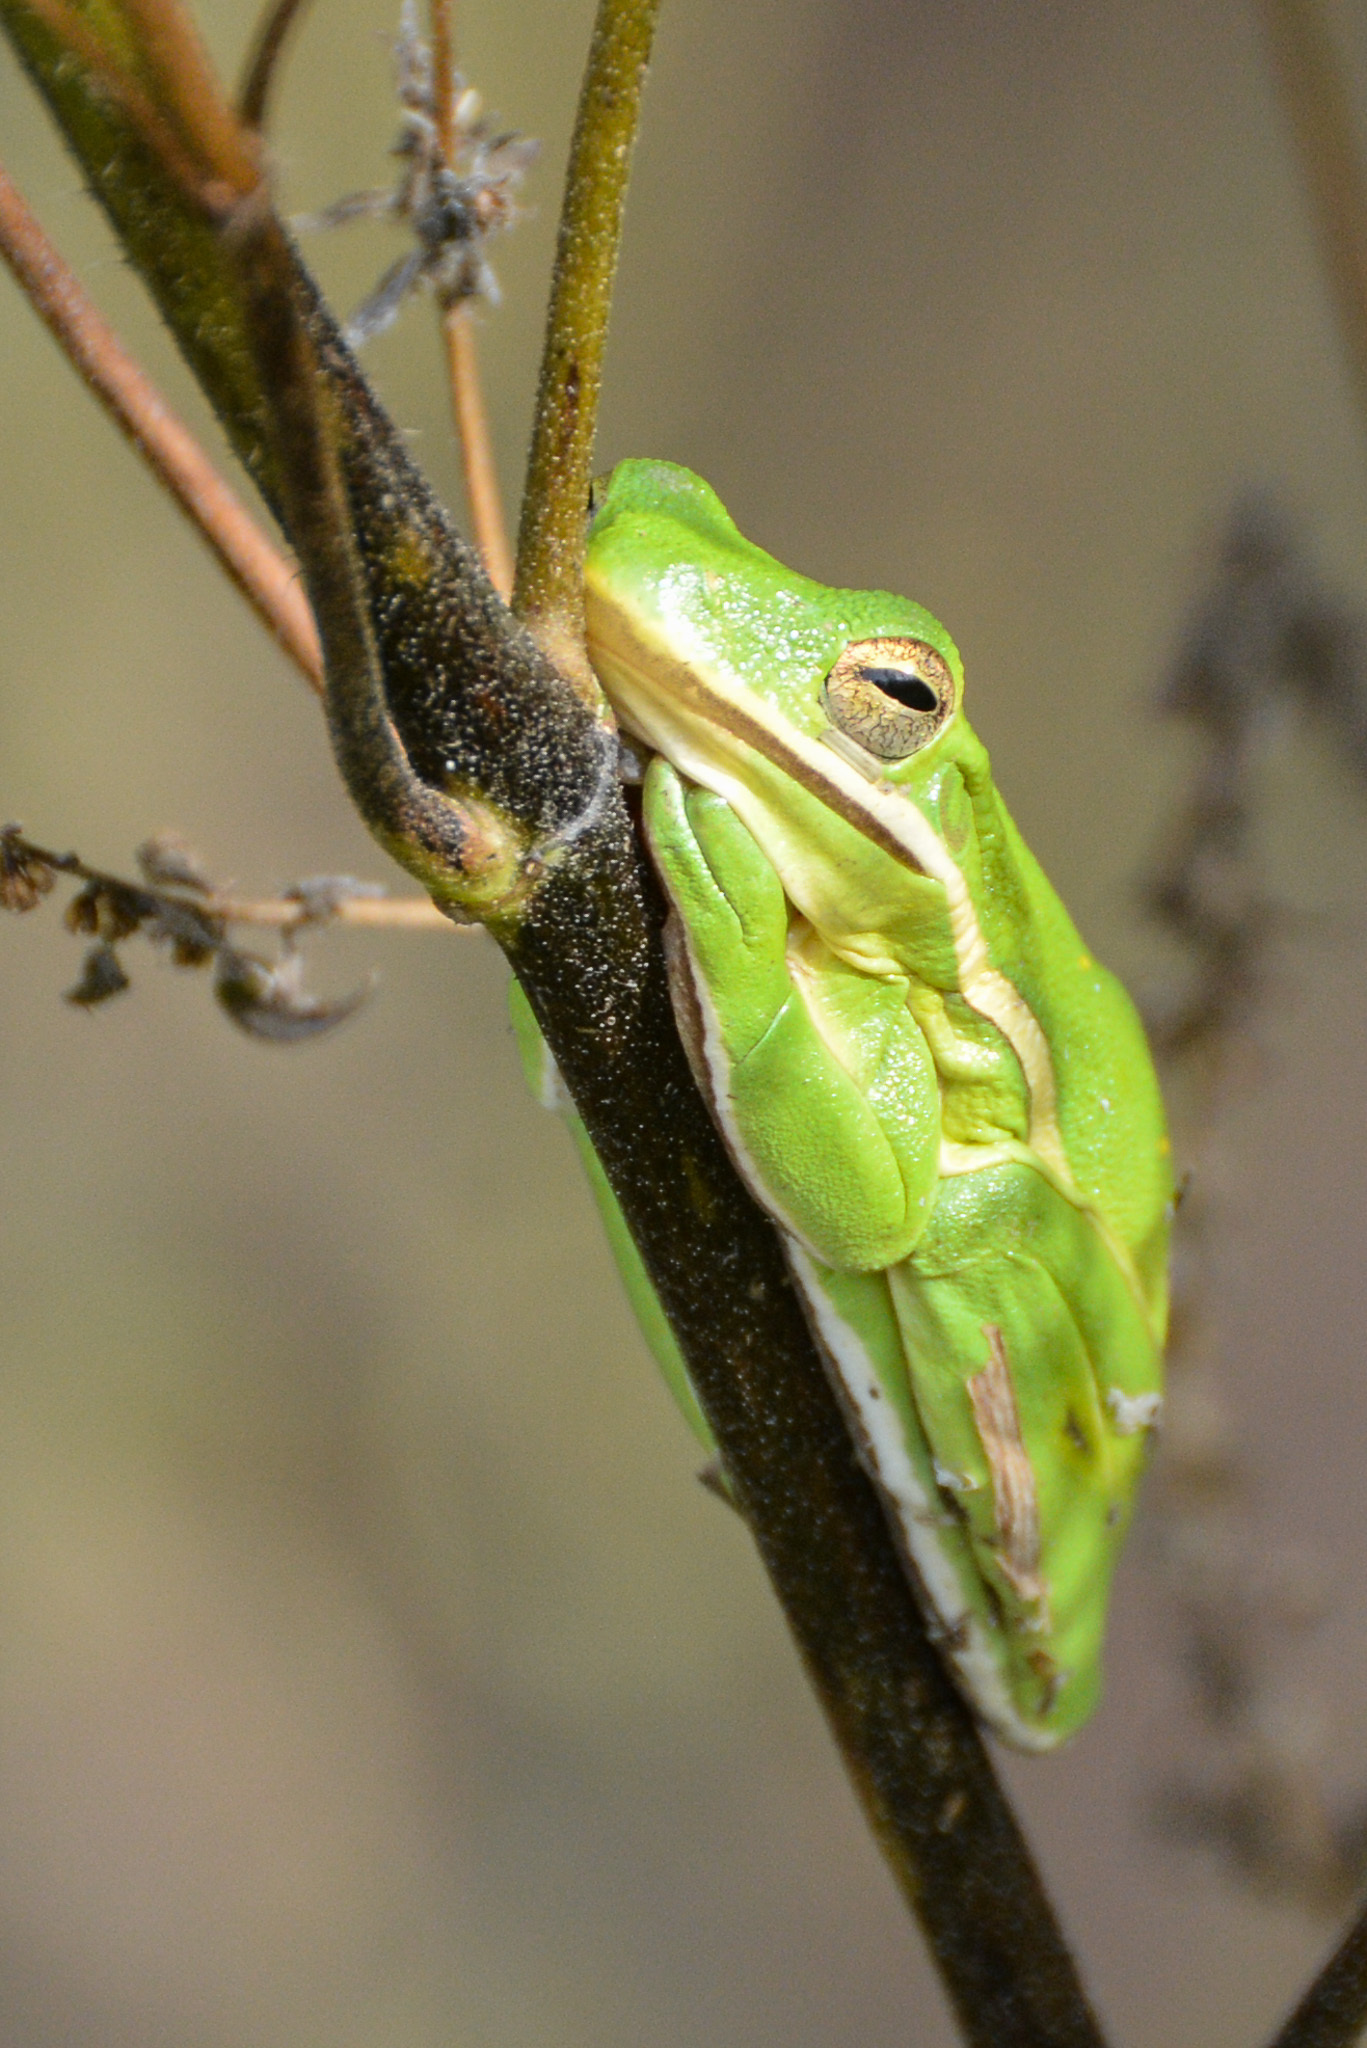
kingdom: Animalia
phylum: Chordata
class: Amphibia
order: Anura
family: Hylidae
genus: Dryophytes
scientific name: Dryophytes cinereus
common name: Green treefrog
